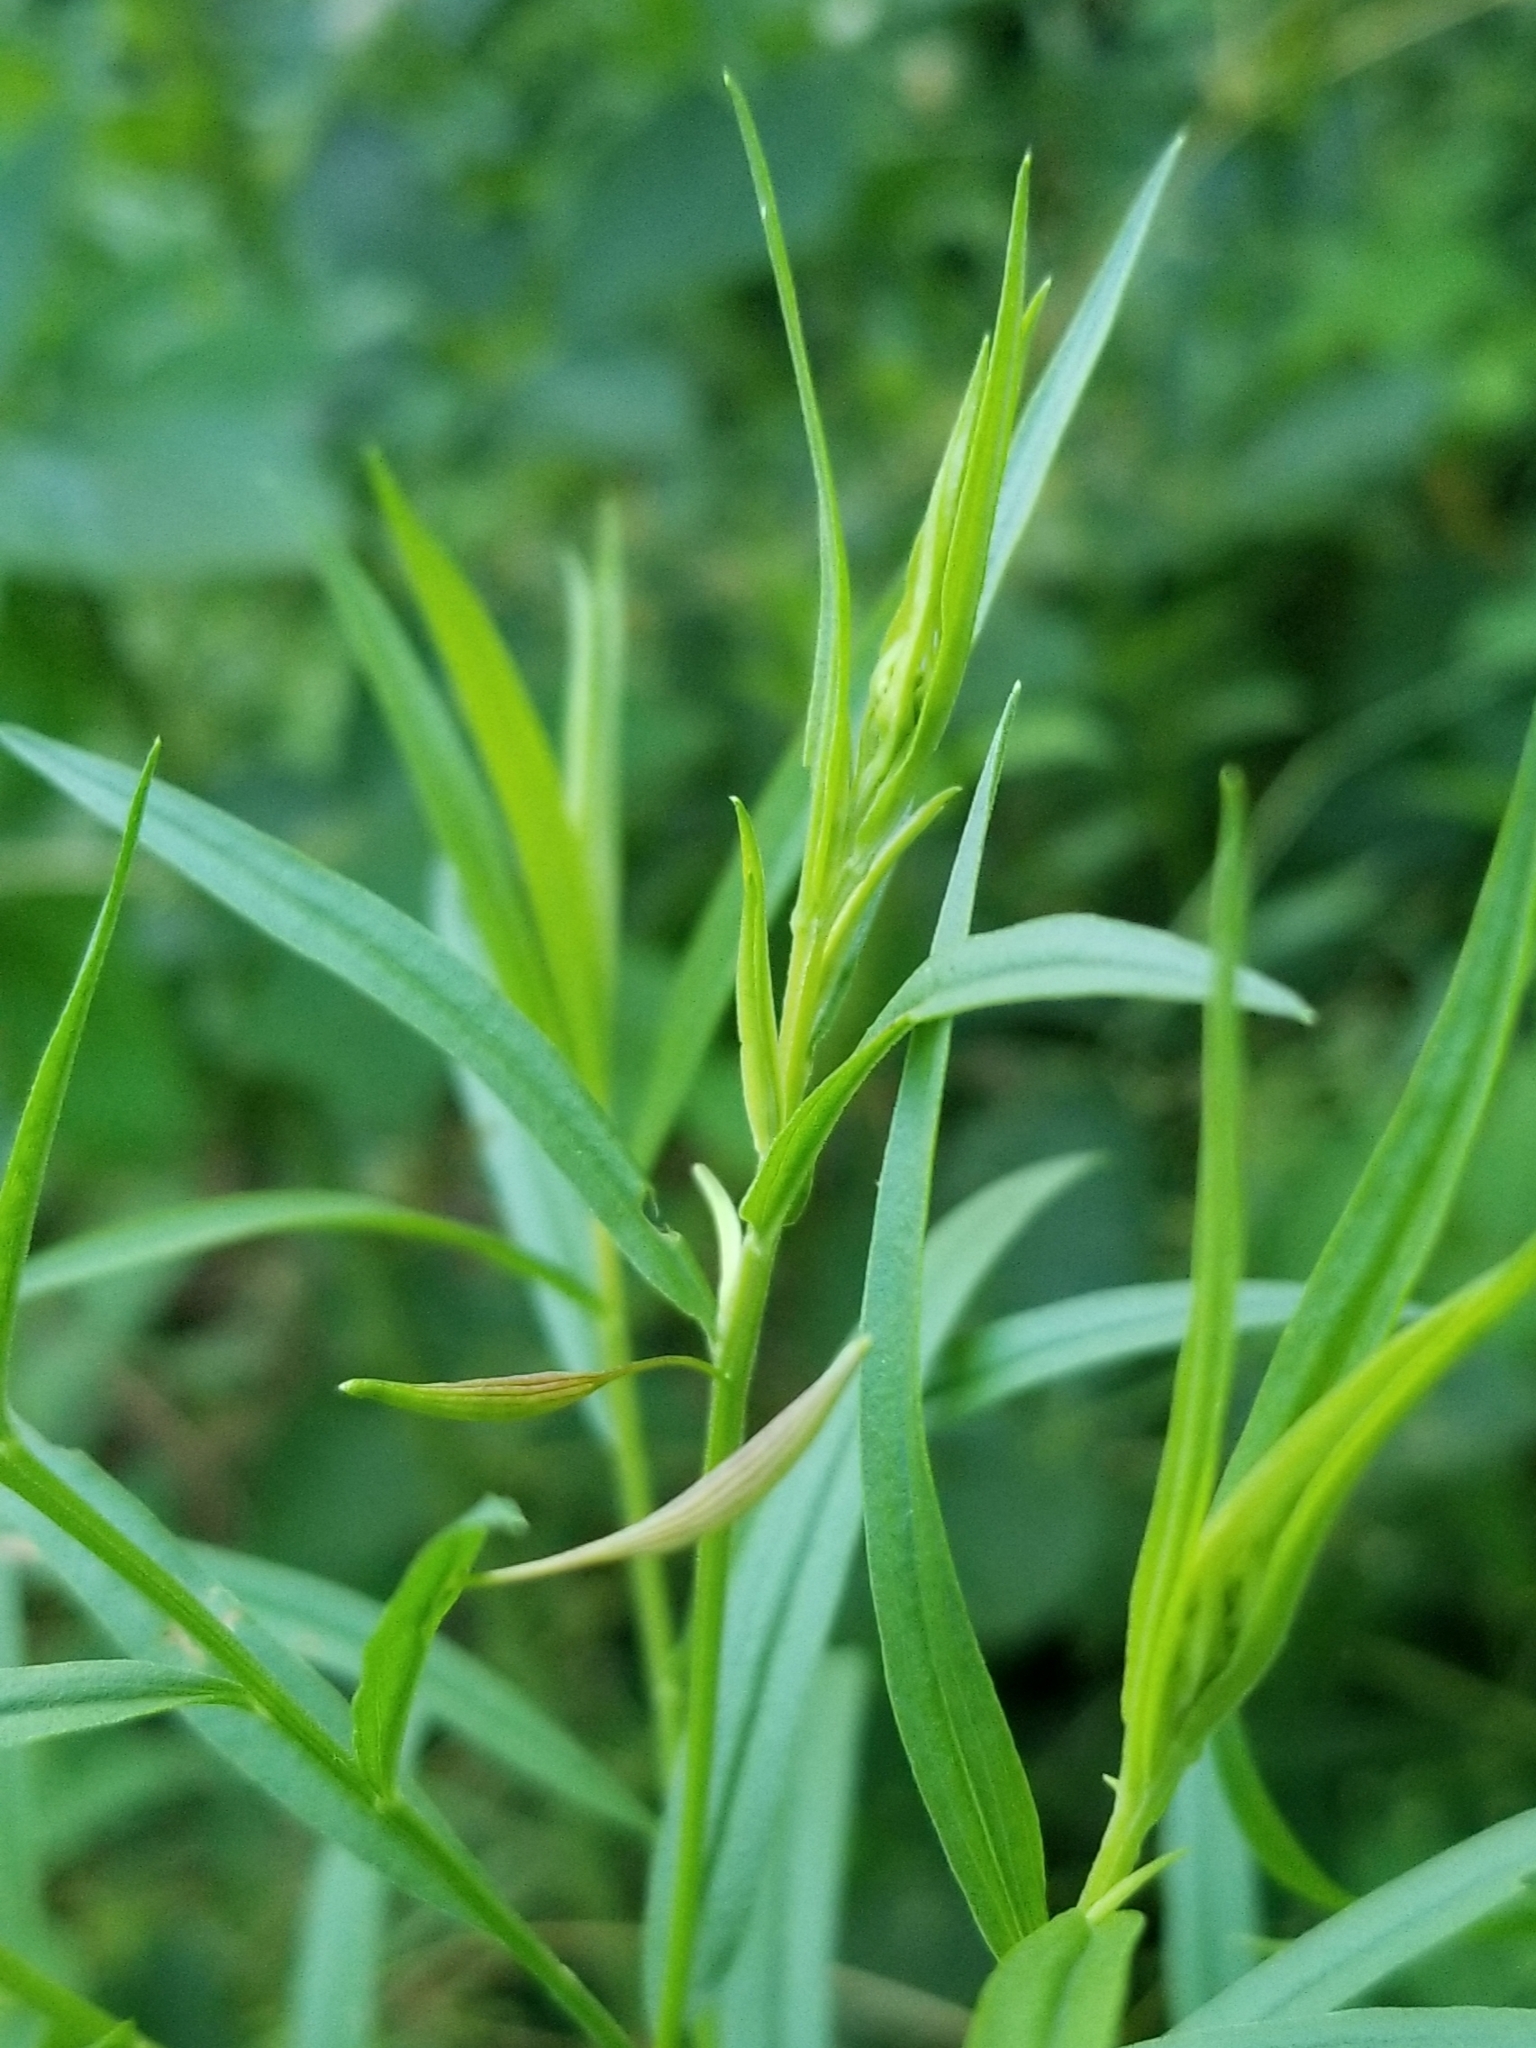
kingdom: Animalia
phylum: Arthropoda
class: Insecta
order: Diptera
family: Cecidomyiidae
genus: Rhopalomyia
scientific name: Rhopalomyia pedicellata
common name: Goldentop pedicellate gall midge
